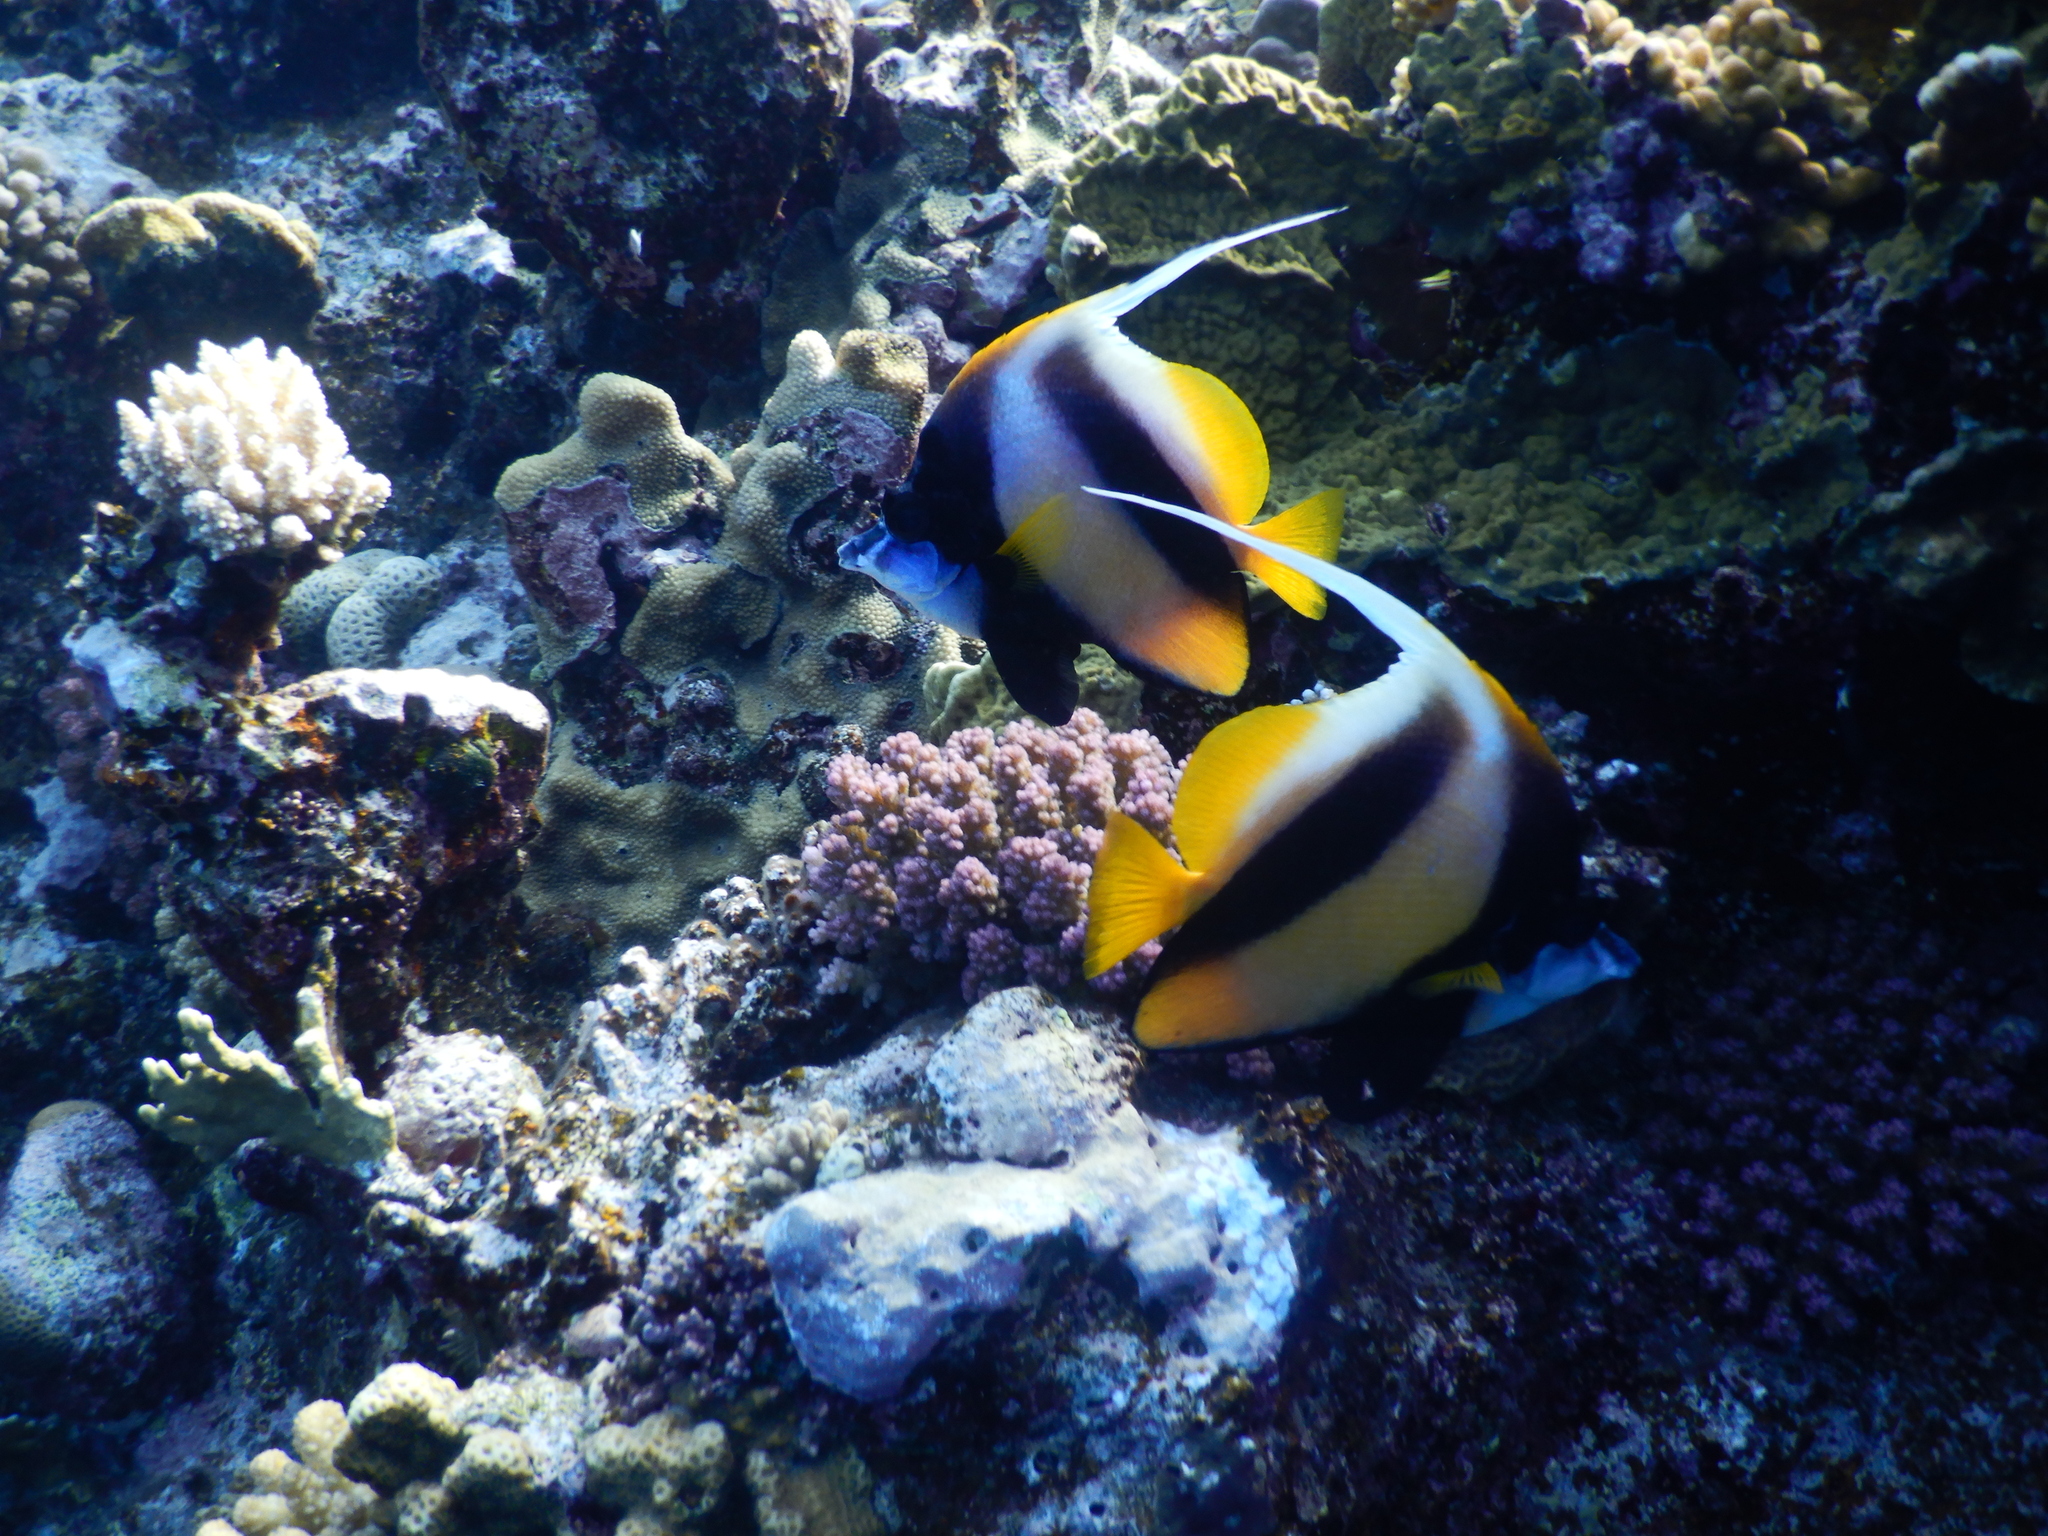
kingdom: Animalia
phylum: Chordata
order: Perciformes
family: Chaetodontidae
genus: Heniochus
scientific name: Heniochus intermedius
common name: Red sea bannerfish
